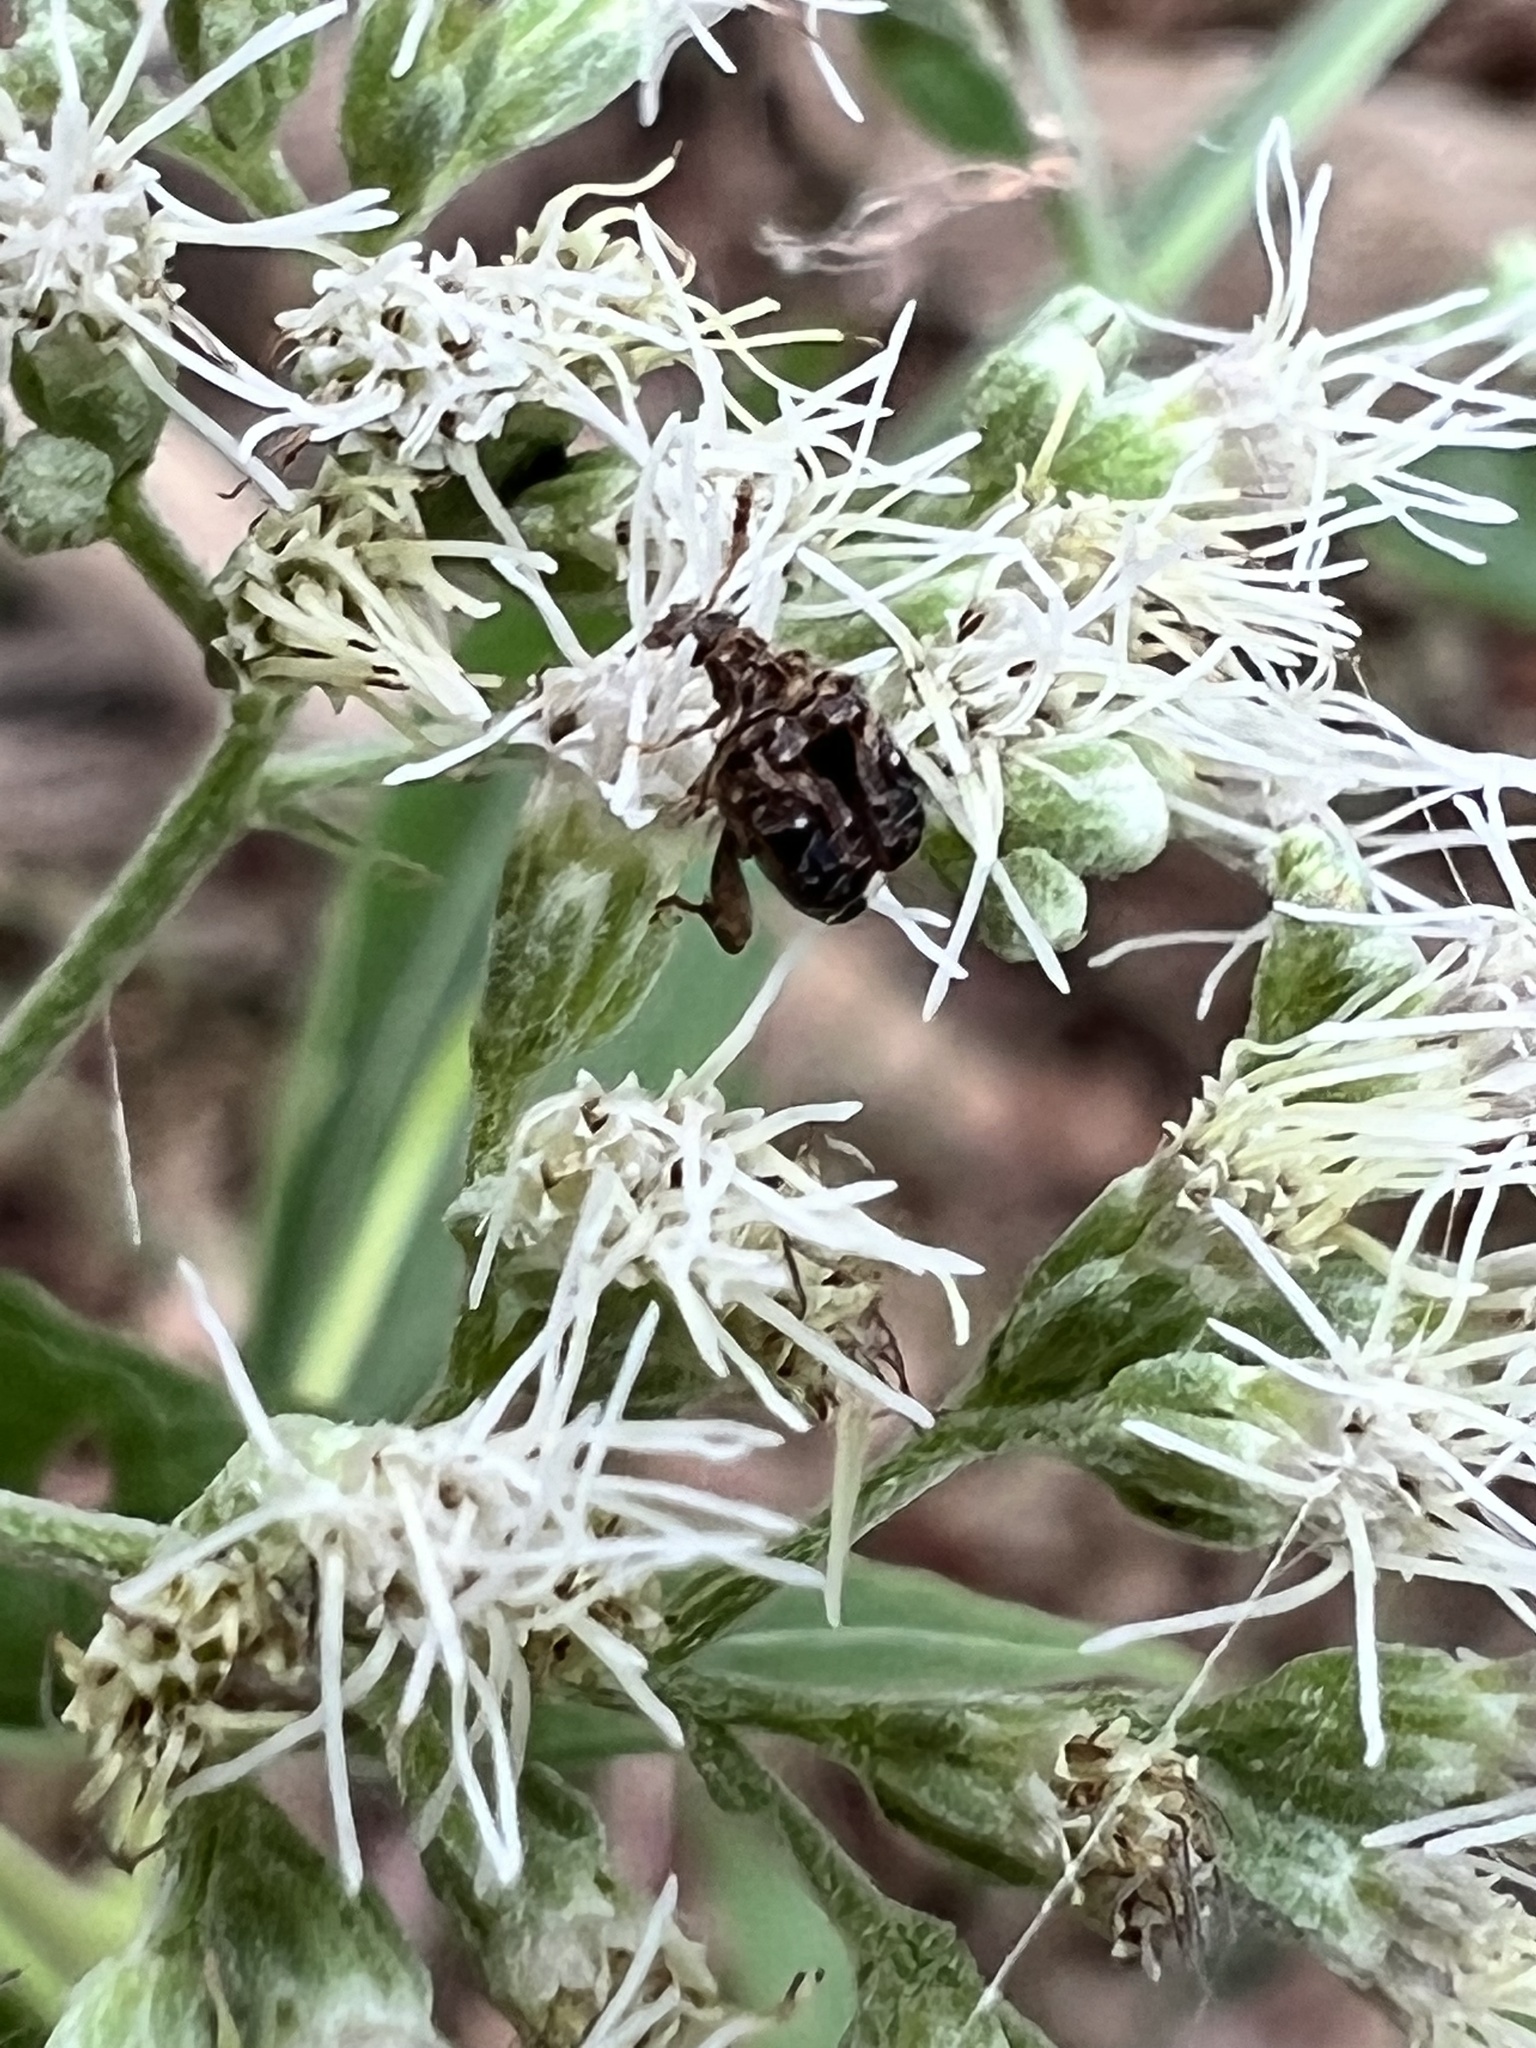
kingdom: Animalia
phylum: Arthropoda
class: Insecta
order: Coleoptera
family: Chrysomelidae
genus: Gibbobruchus
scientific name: Gibbobruchus mimus
